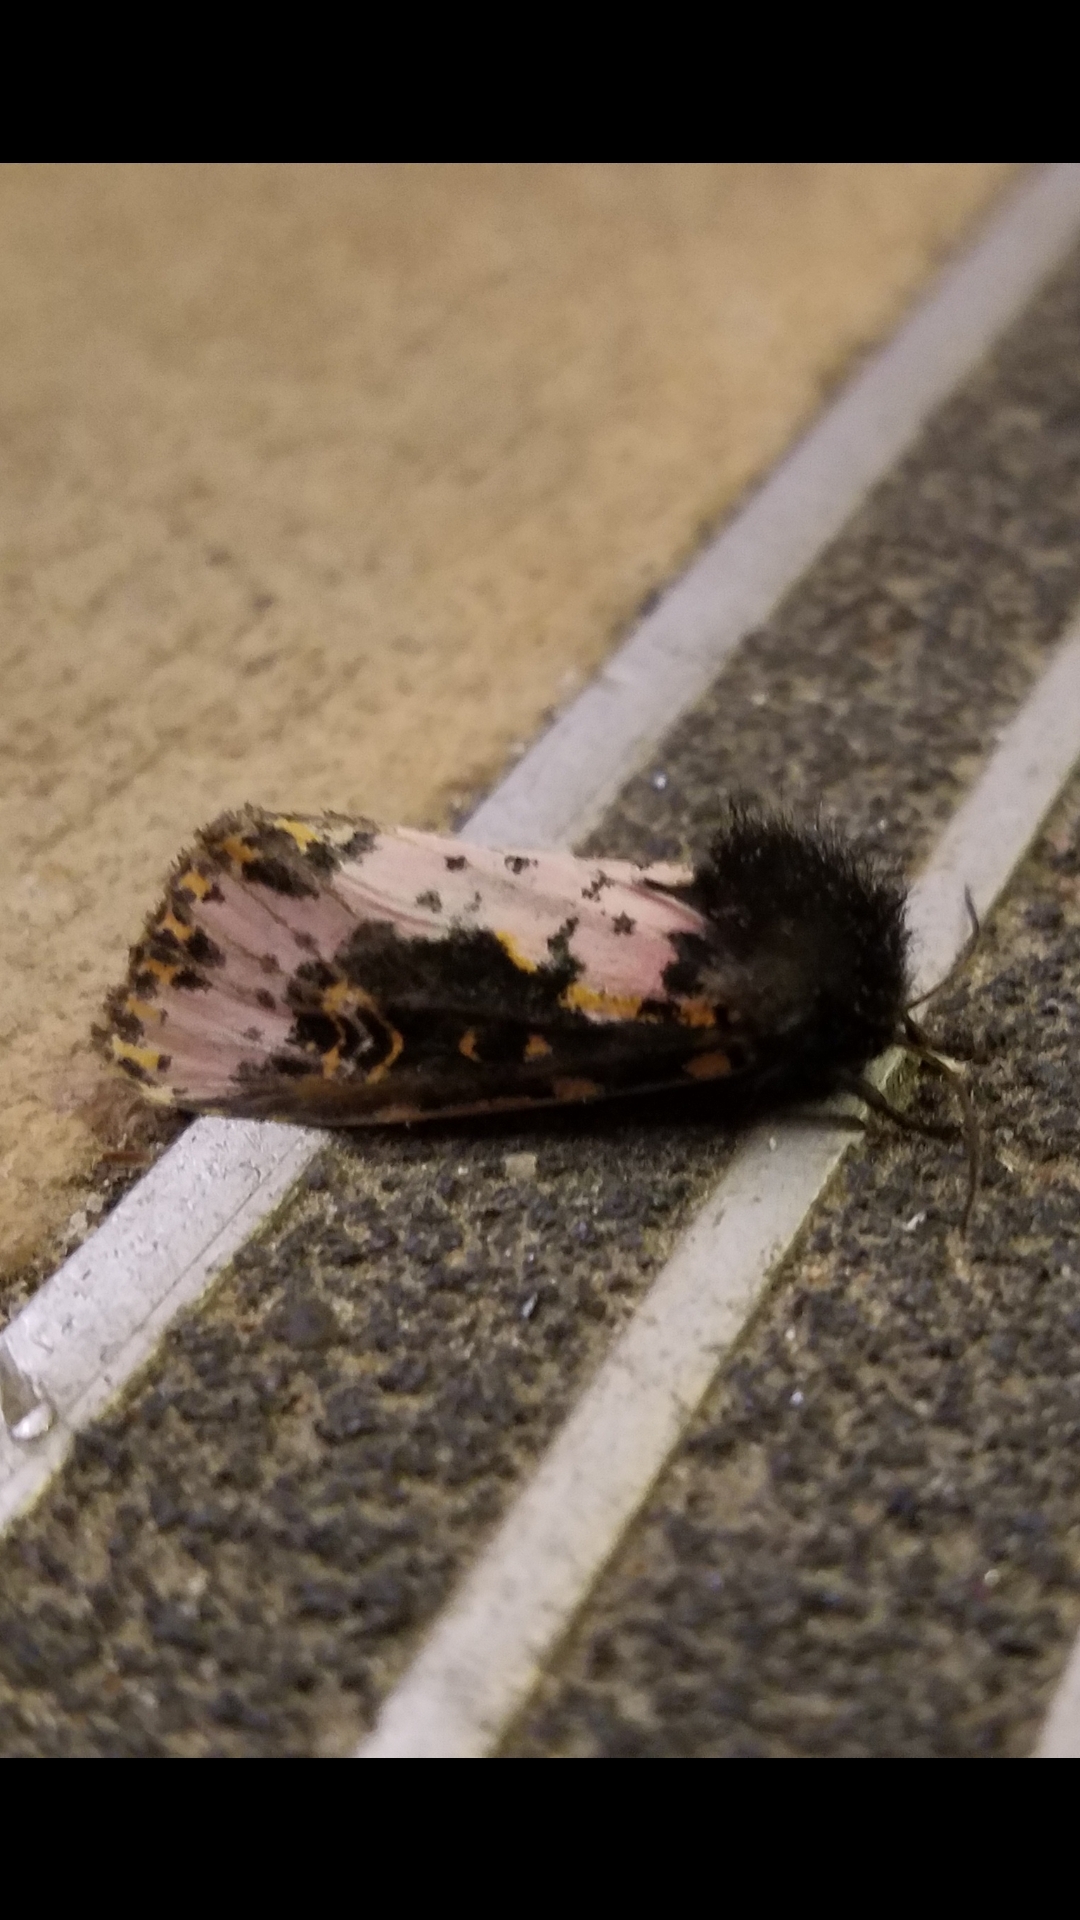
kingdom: Animalia
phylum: Arthropoda
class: Insecta
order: Lepidoptera
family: Noctuidae
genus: Xanthopastis
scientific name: Xanthopastis regnatrix
